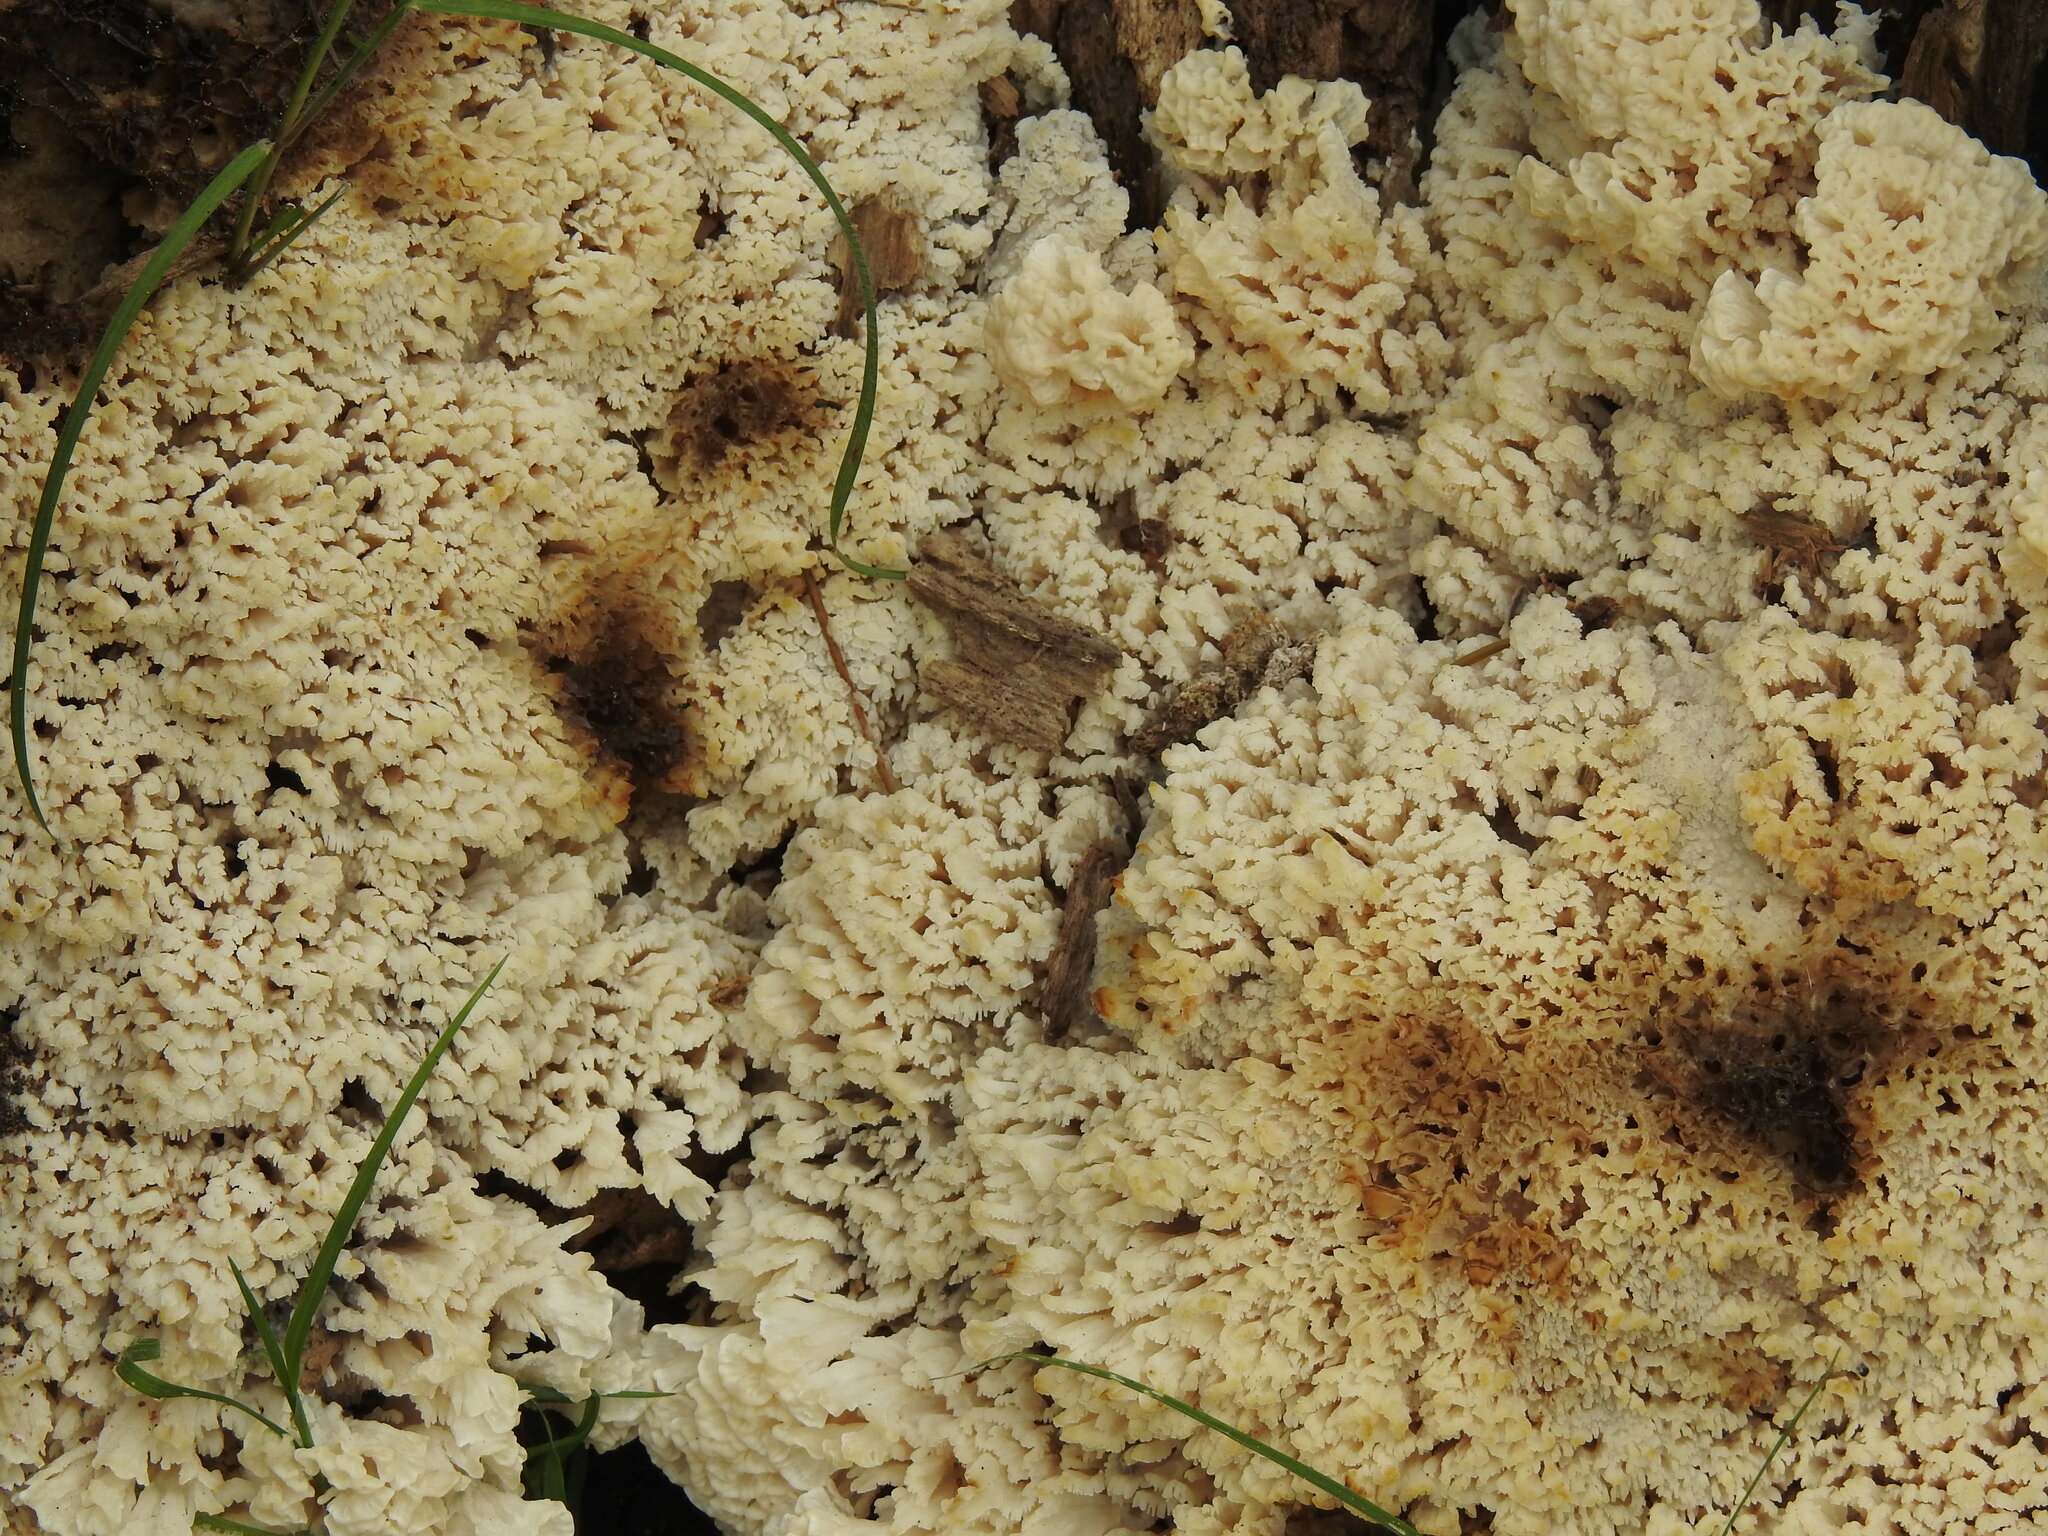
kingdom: Fungi
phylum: Basidiomycota
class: Agaricomycetes
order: Polyporales
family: Irpicaceae
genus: Irpex
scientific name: Irpex rosettiformis
